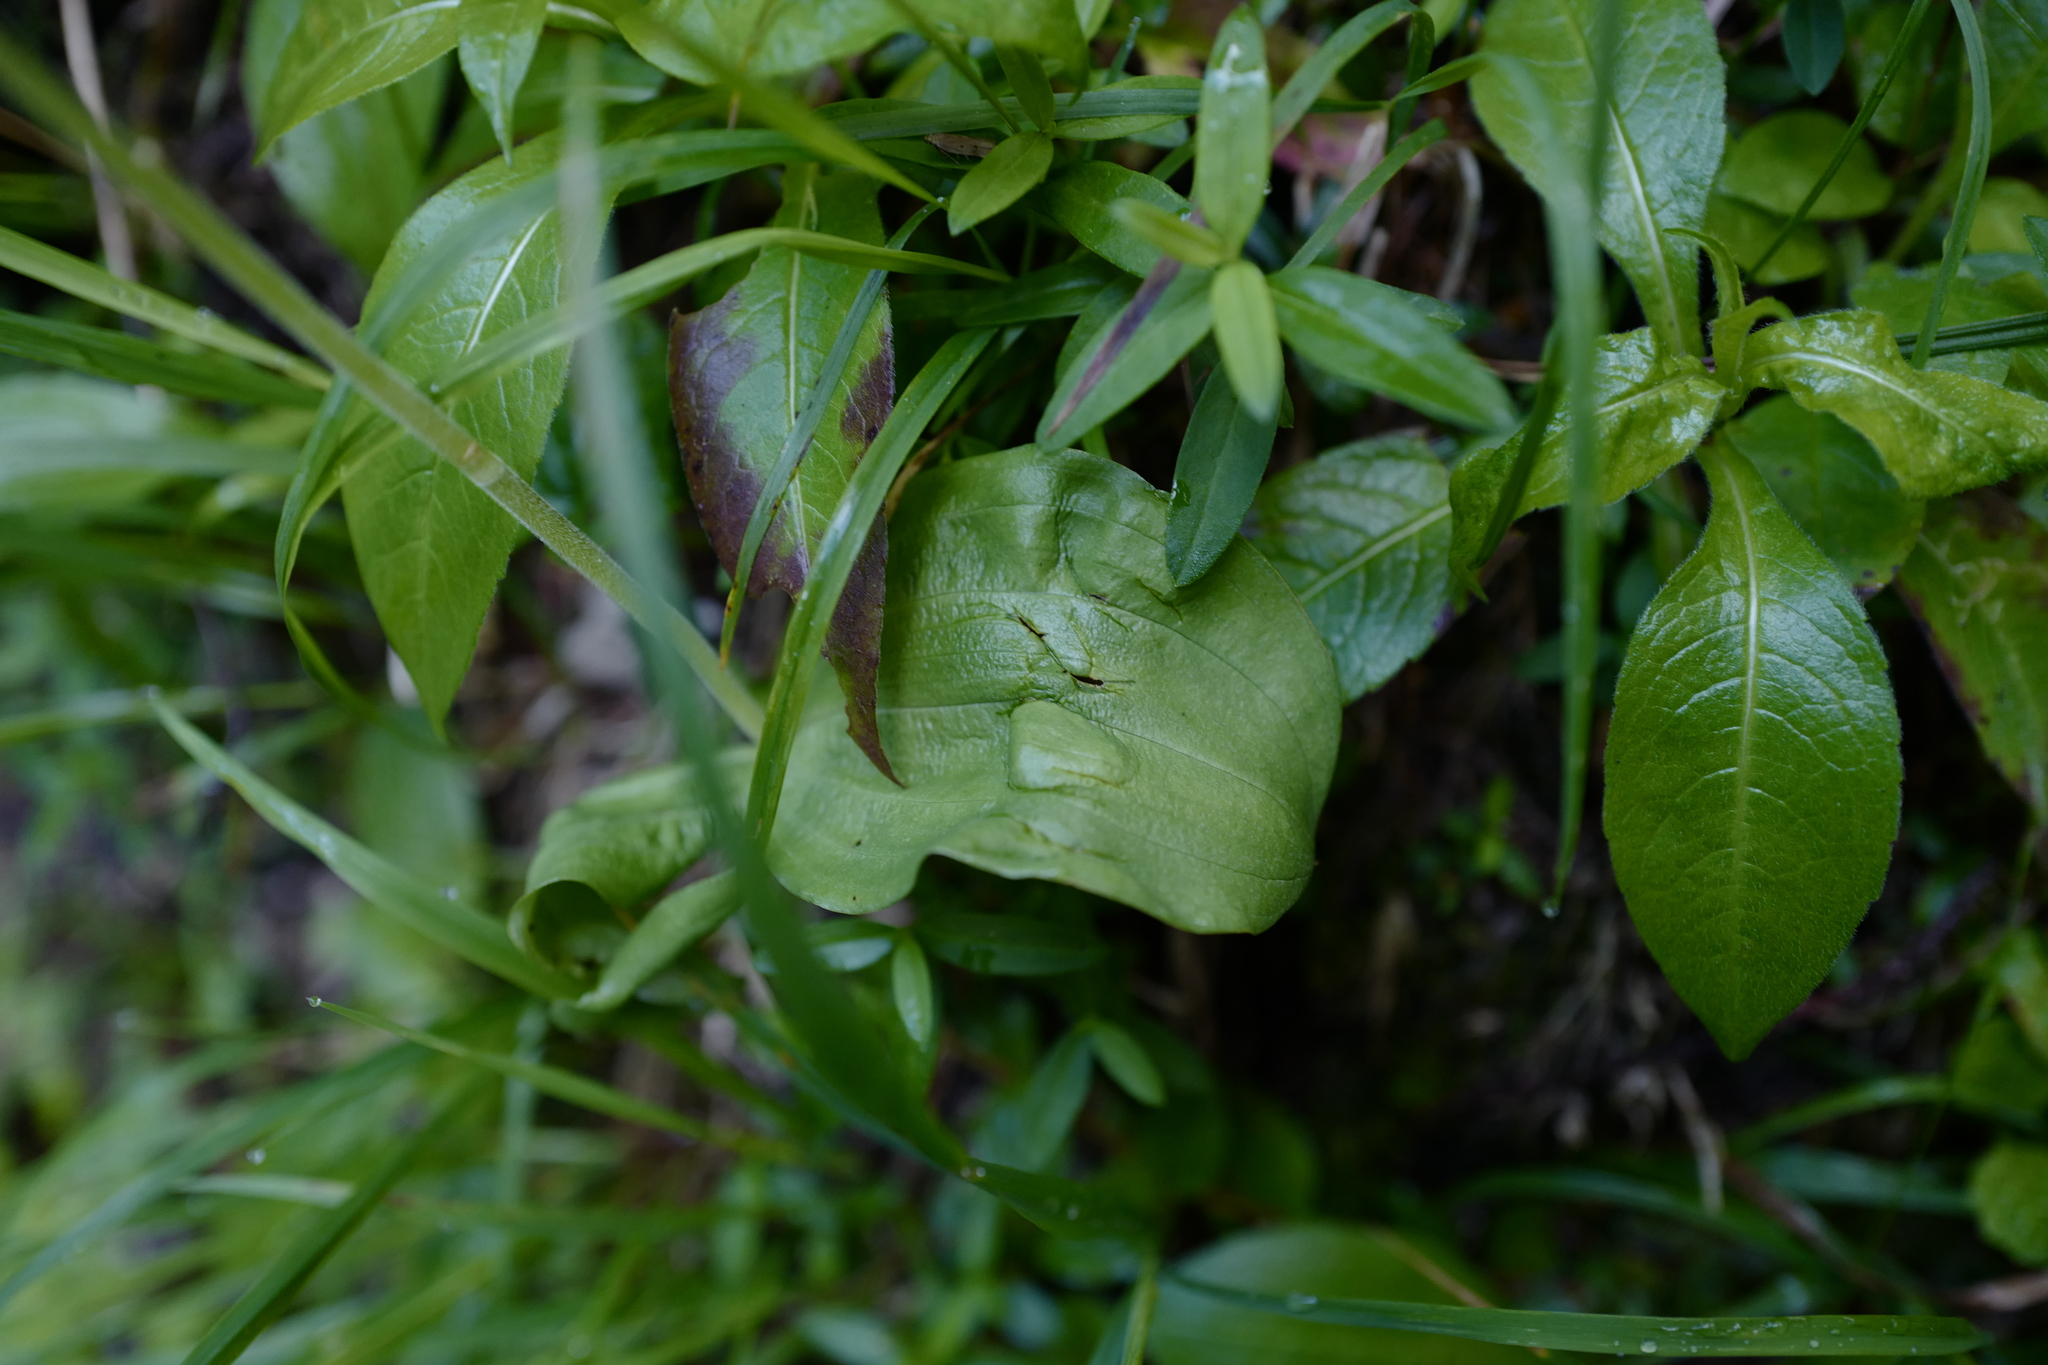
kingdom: Plantae
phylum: Tracheophyta
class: Liliopsida
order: Asparagales
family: Orchidaceae
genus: Neottia
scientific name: Neottia ovata
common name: Common twayblade
